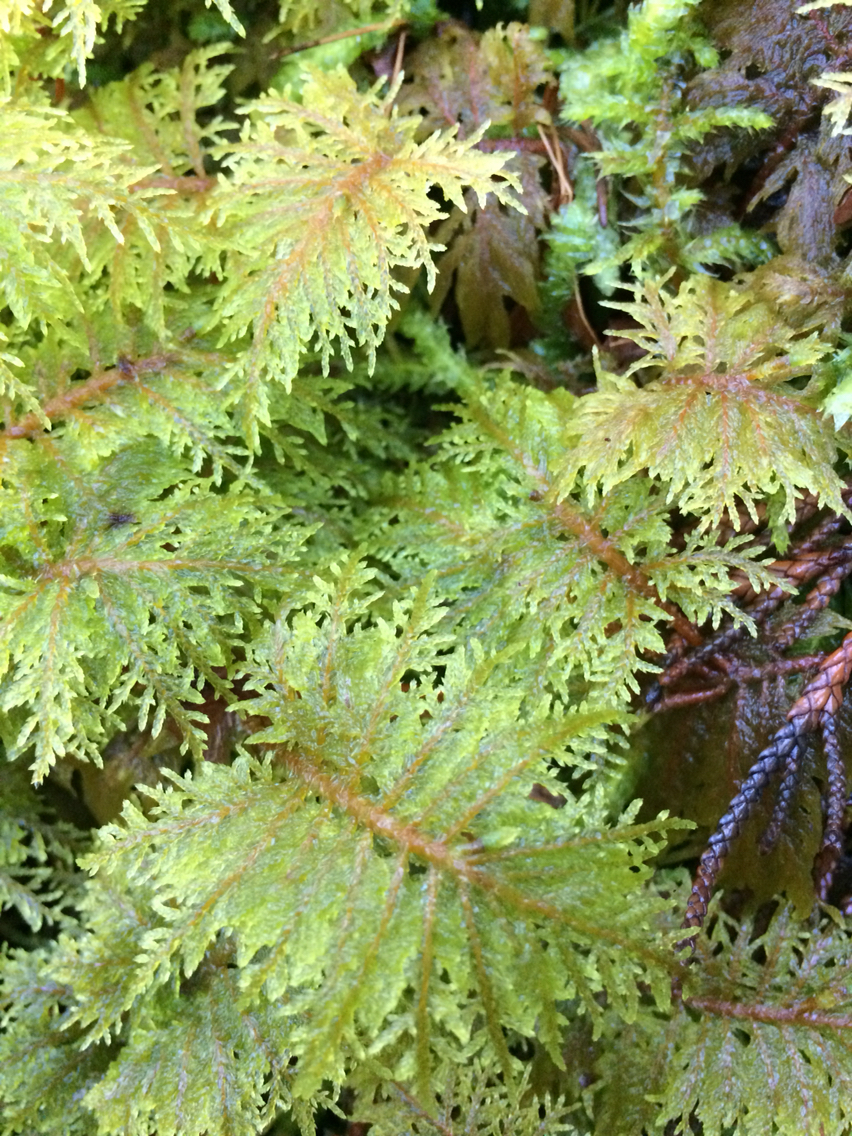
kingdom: Plantae
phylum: Bryophyta
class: Bryopsida
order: Hypnales
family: Hylocomiaceae
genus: Hylocomium
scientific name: Hylocomium splendens
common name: Stairstep moss
